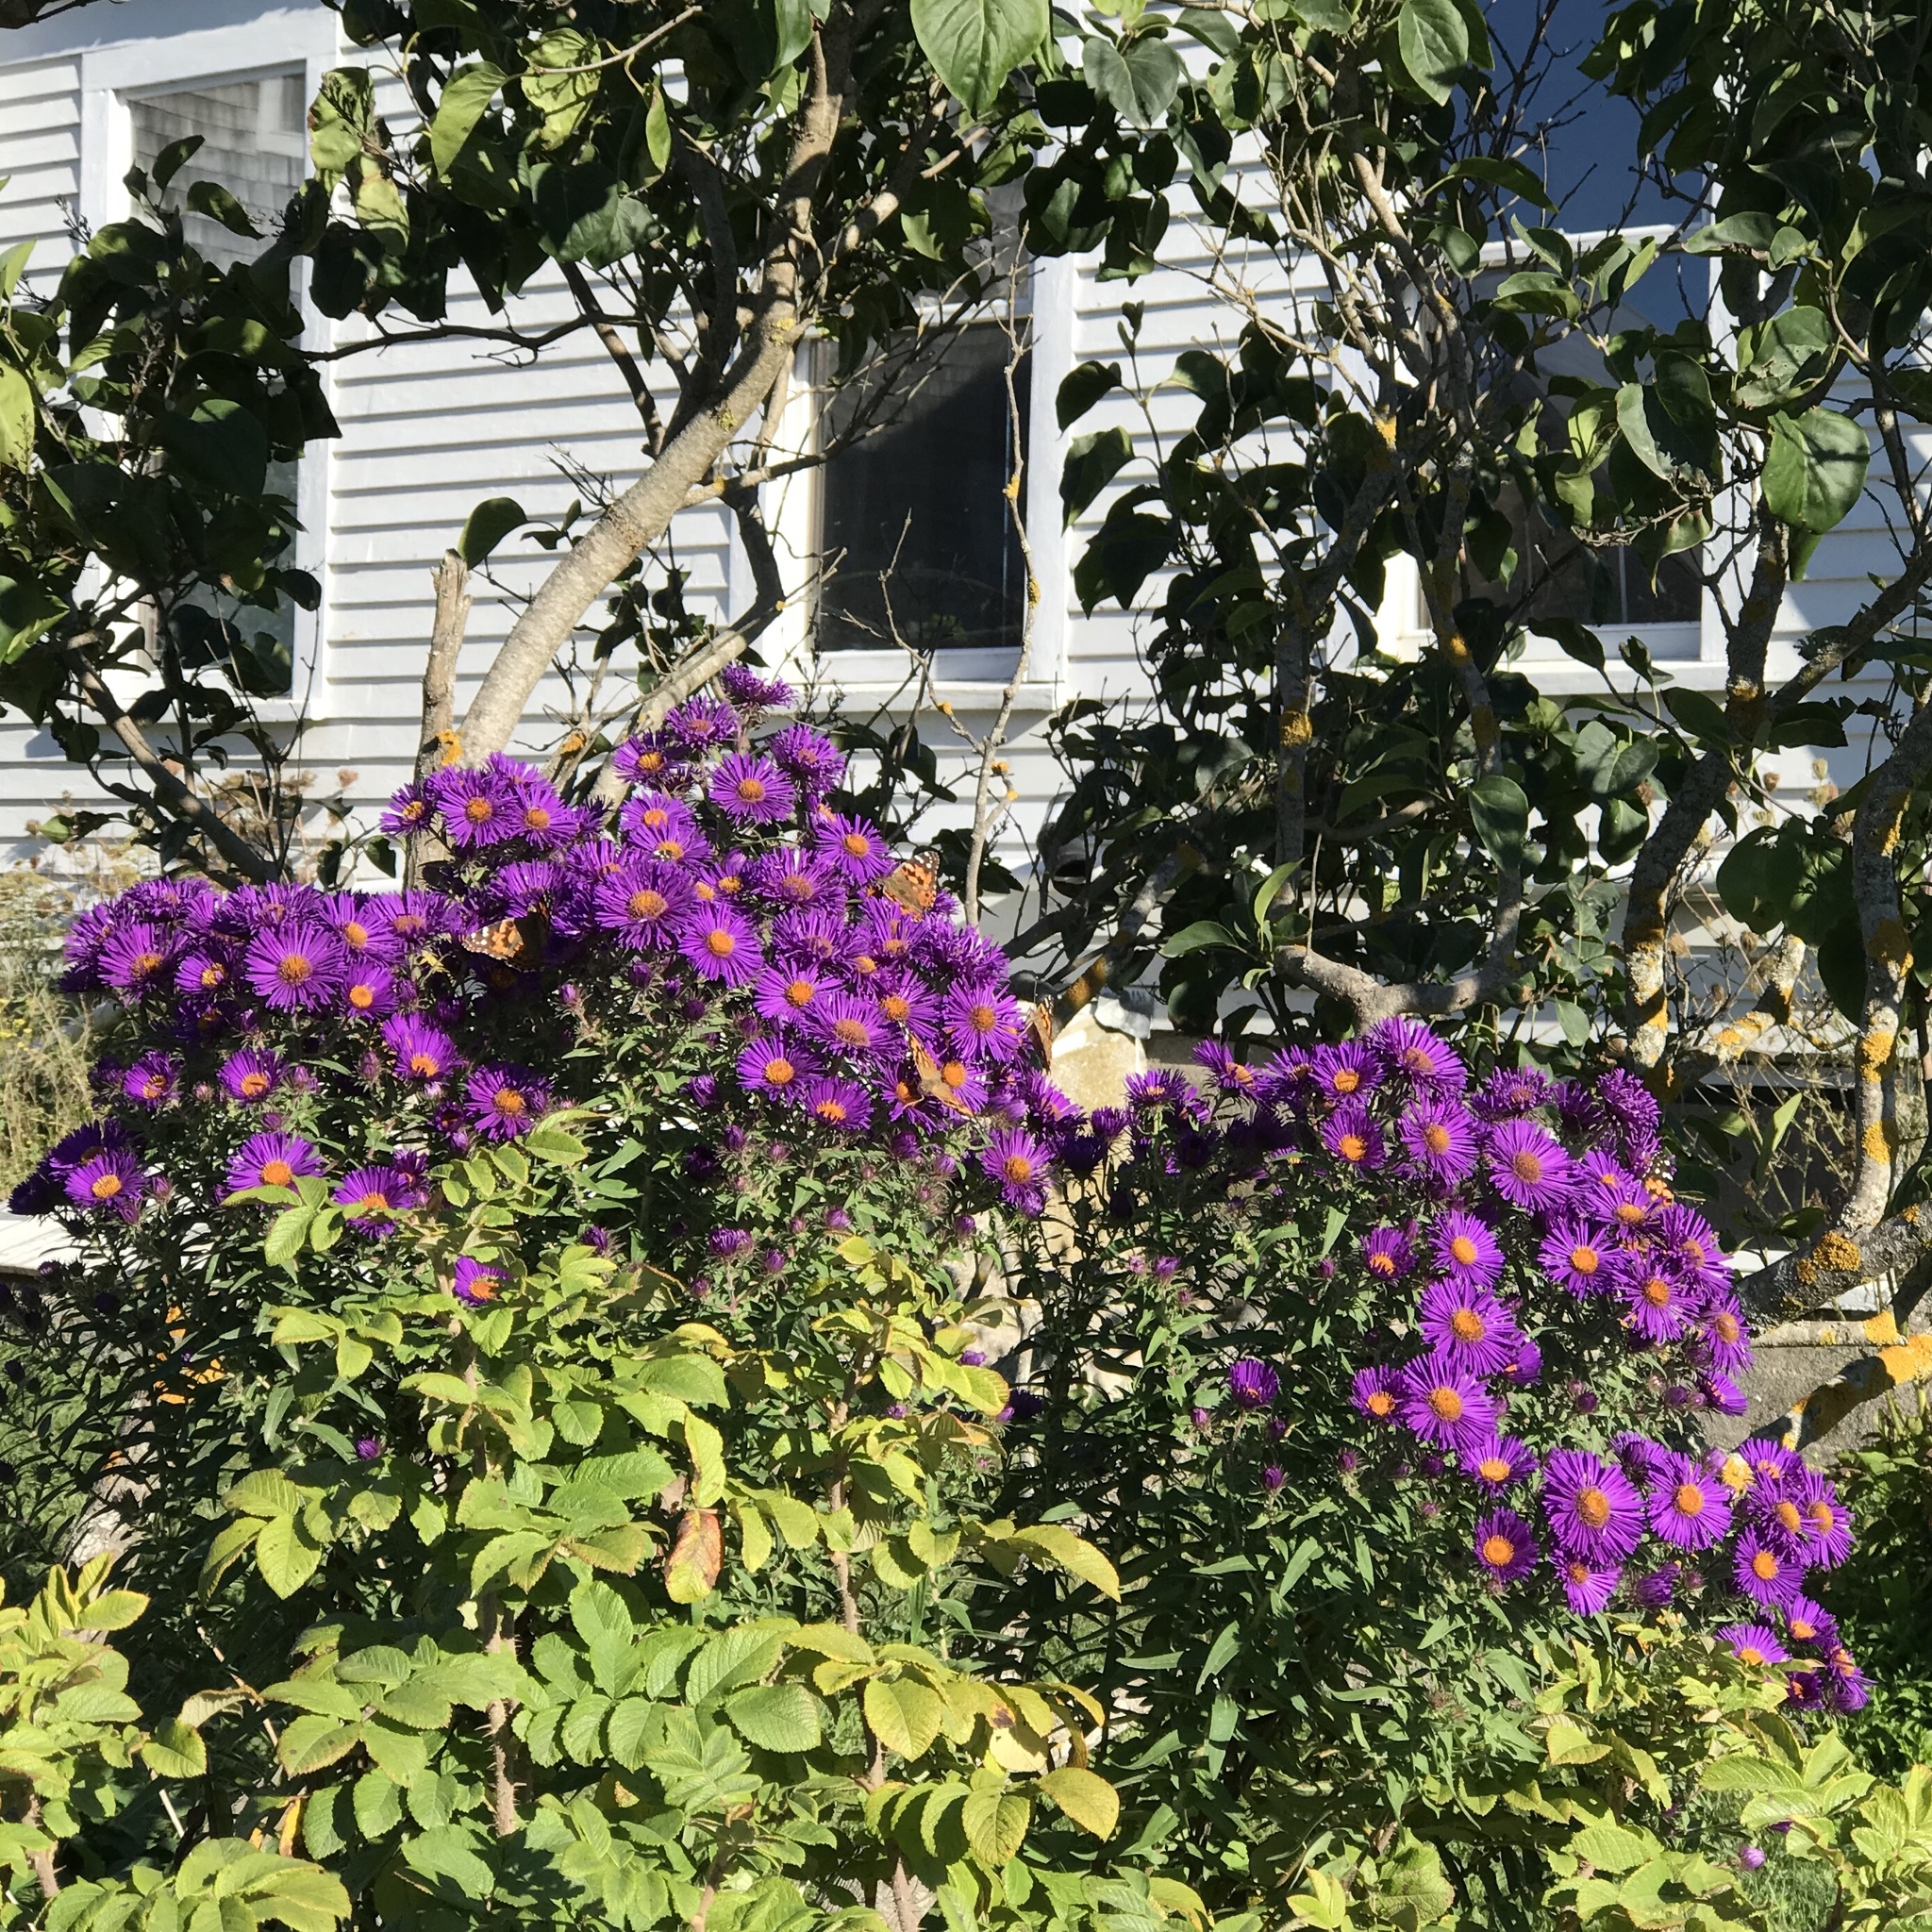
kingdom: Animalia
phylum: Arthropoda
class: Insecta
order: Lepidoptera
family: Nymphalidae
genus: Vanessa
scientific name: Vanessa cardui
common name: Painted lady
